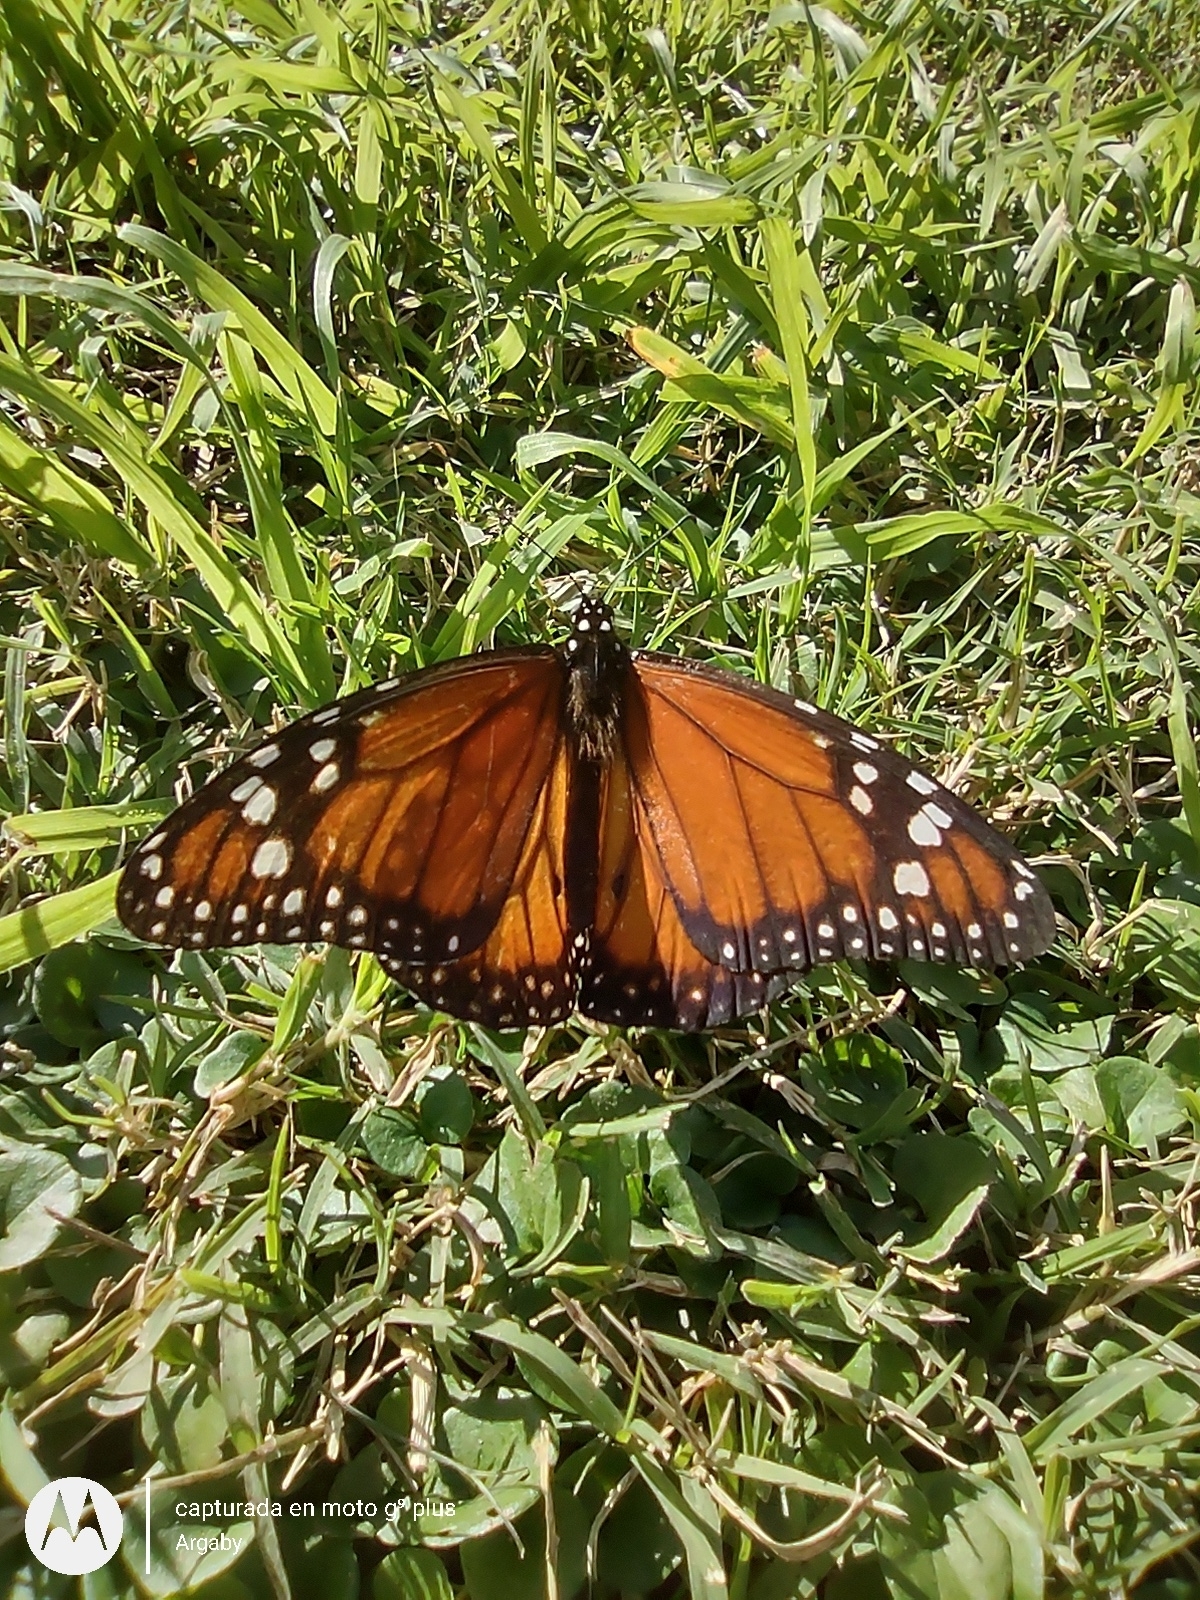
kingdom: Animalia
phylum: Arthropoda
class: Insecta
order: Lepidoptera
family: Nymphalidae
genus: Danaus
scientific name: Danaus erippus
